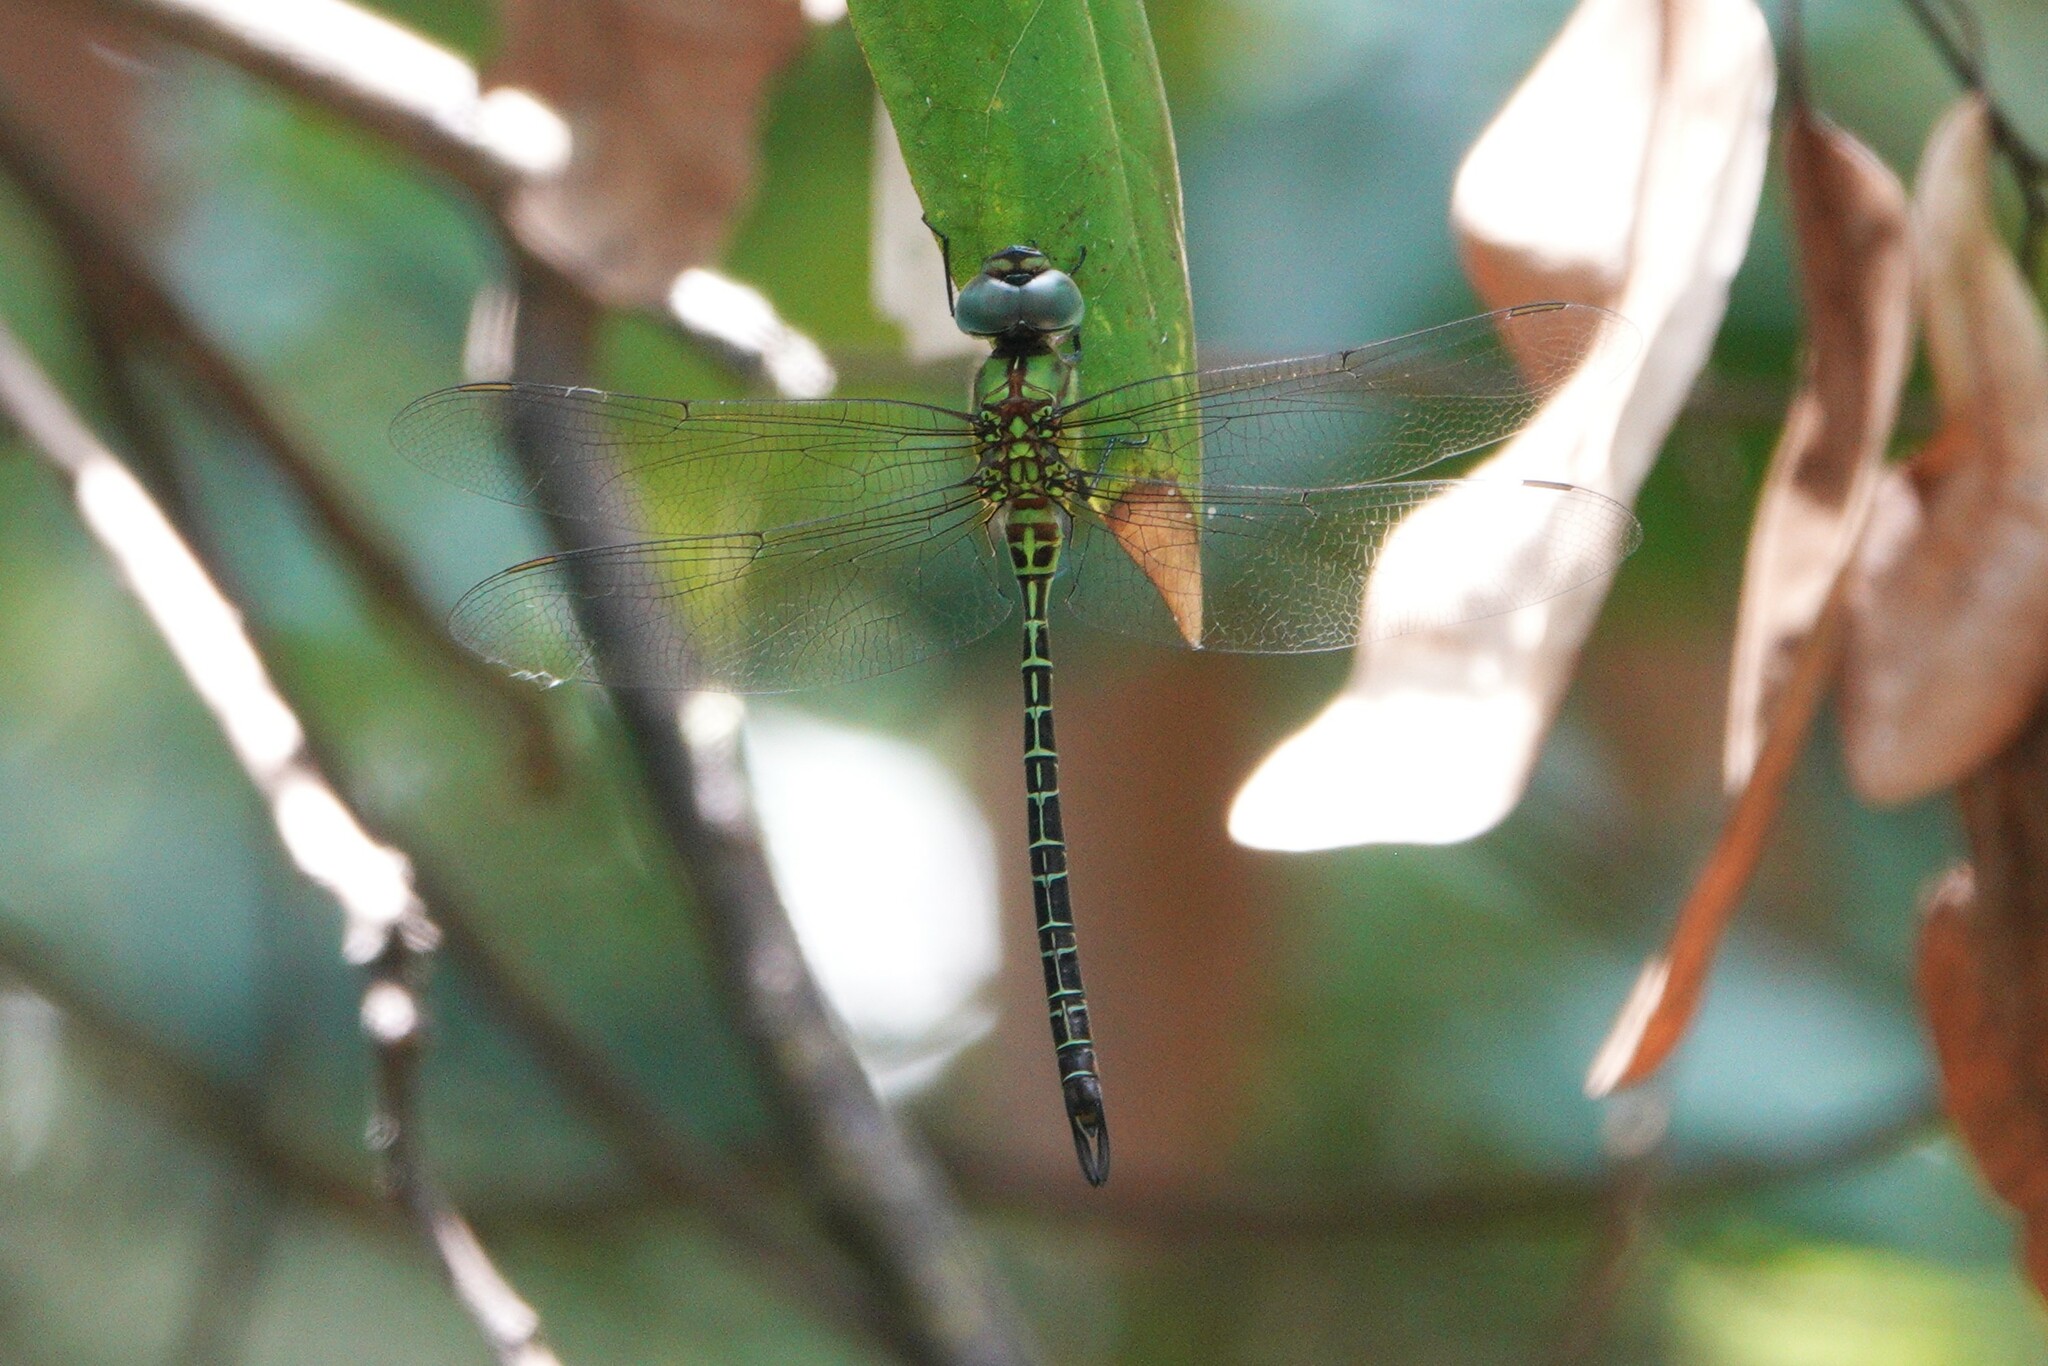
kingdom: Animalia
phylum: Arthropoda
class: Insecta
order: Odonata
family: Aeshnidae
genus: Coryphaeschna
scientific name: Coryphaeschna adnexa
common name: Blue-faced darner
